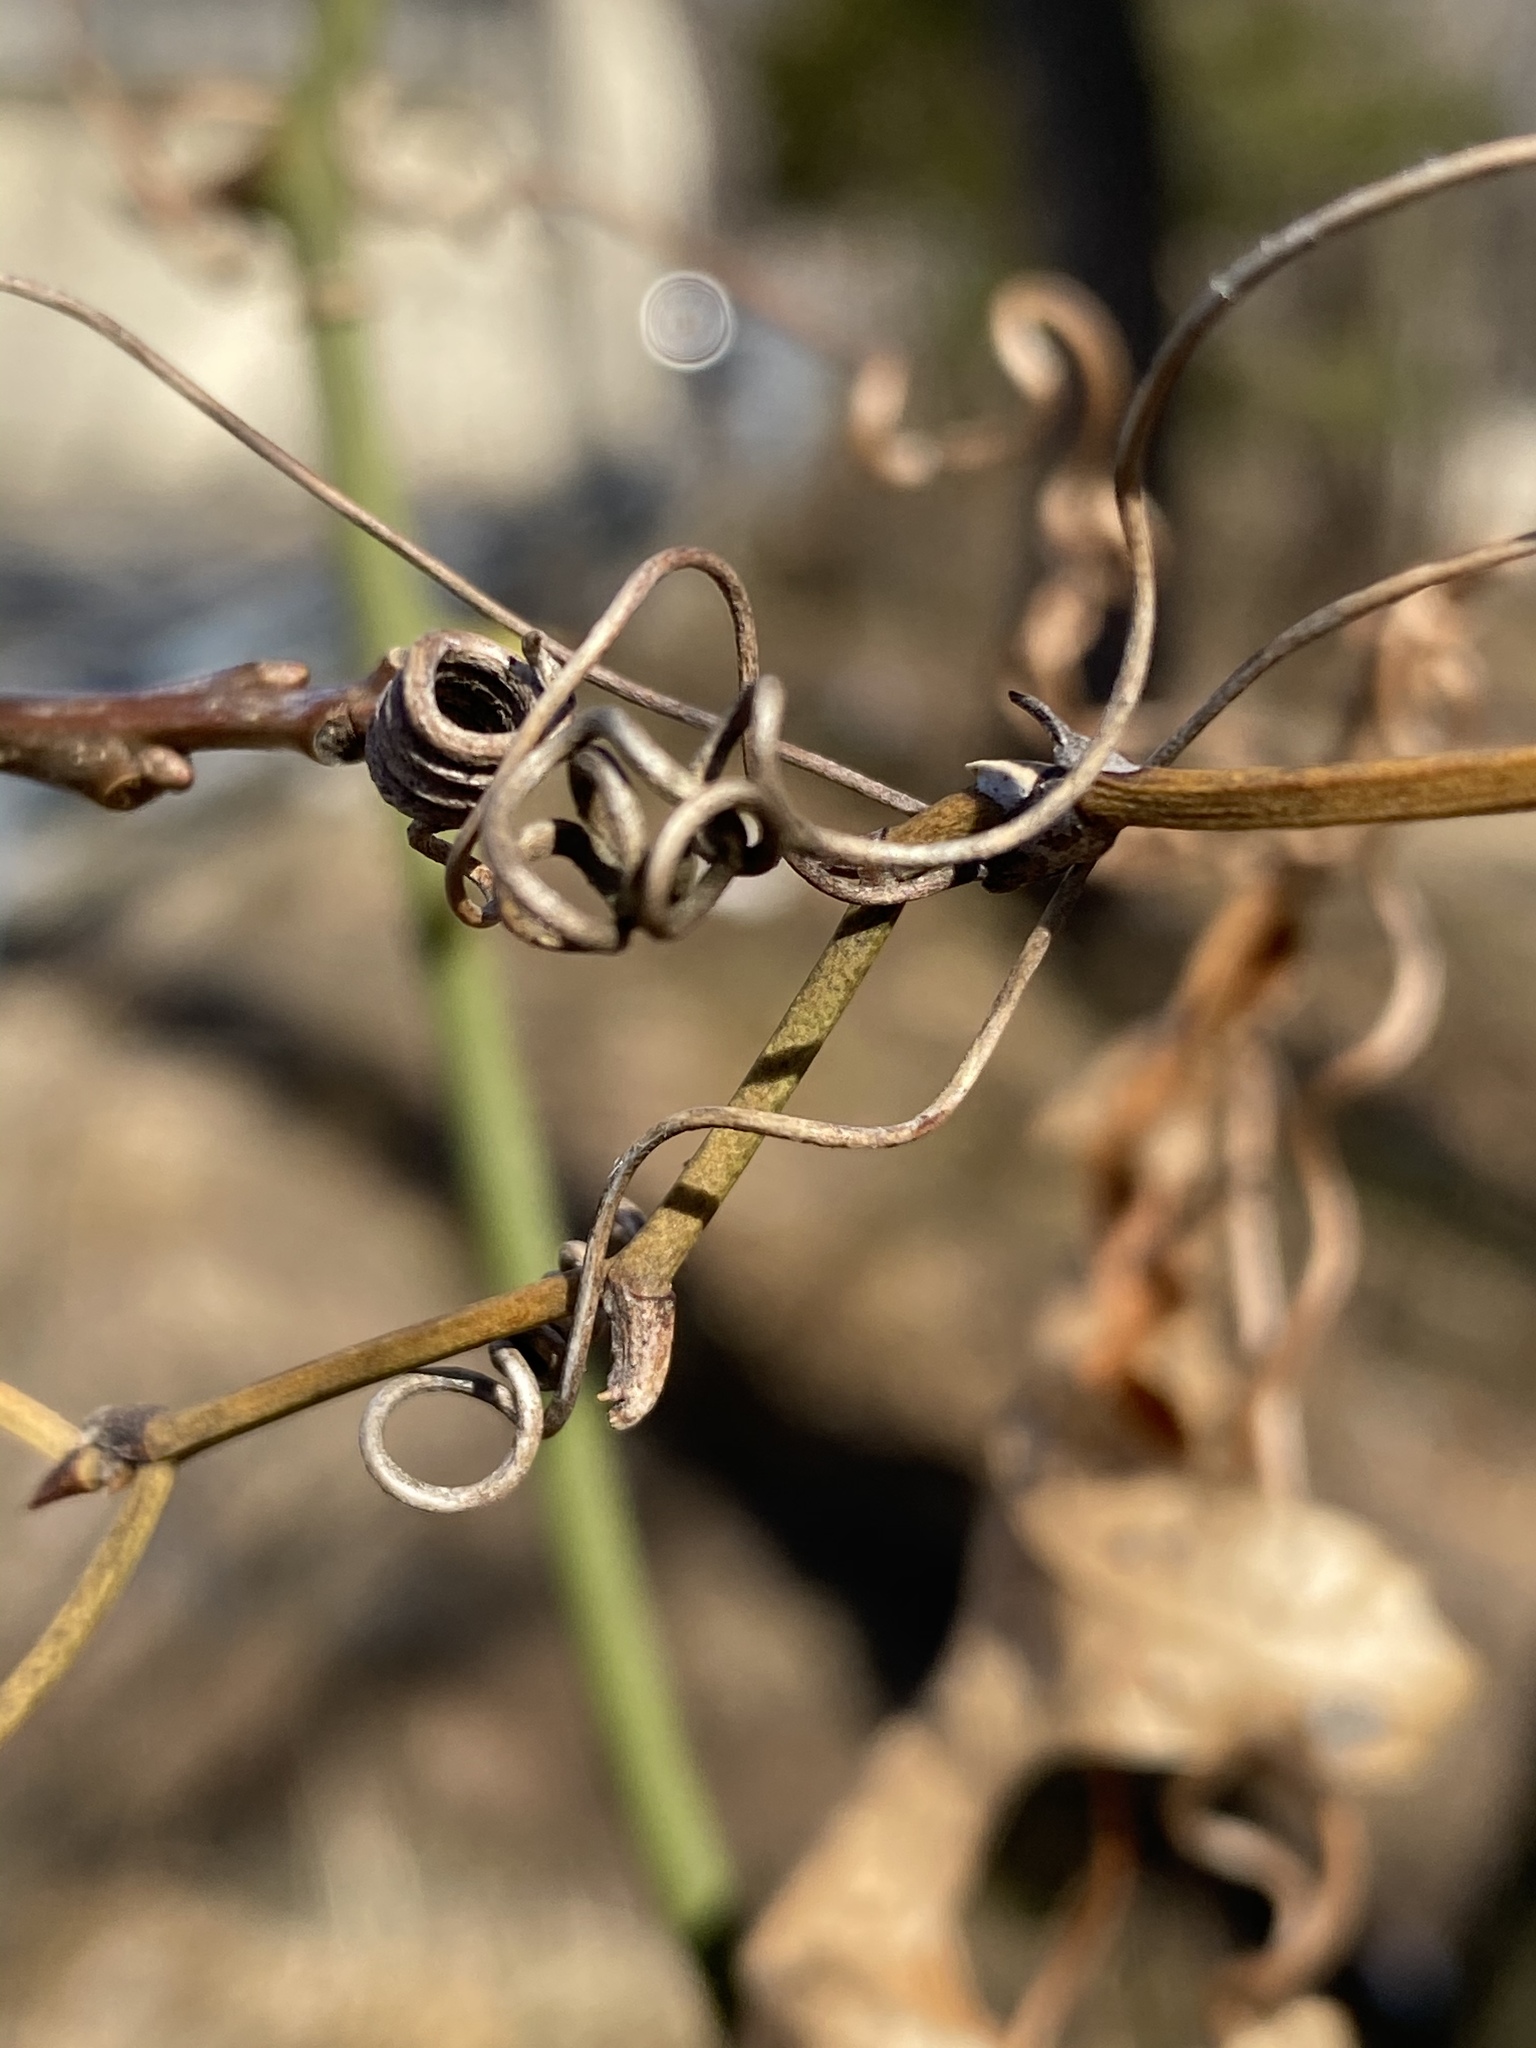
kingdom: Plantae
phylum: Tracheophyta
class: Liliopsida
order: Liliales
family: Smilacaceae
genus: Smilax
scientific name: Smilax rotundifolia
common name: Bullbriar
